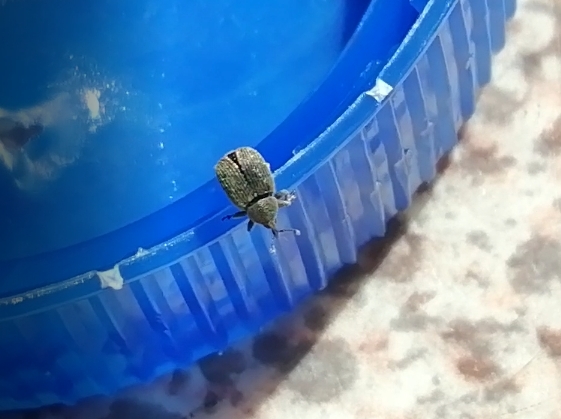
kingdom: Animalia
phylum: Arthropoda
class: Insecta
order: Coleoptera
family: Curculionidae
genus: Rhinusa
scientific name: Rhinusa antirrhini
